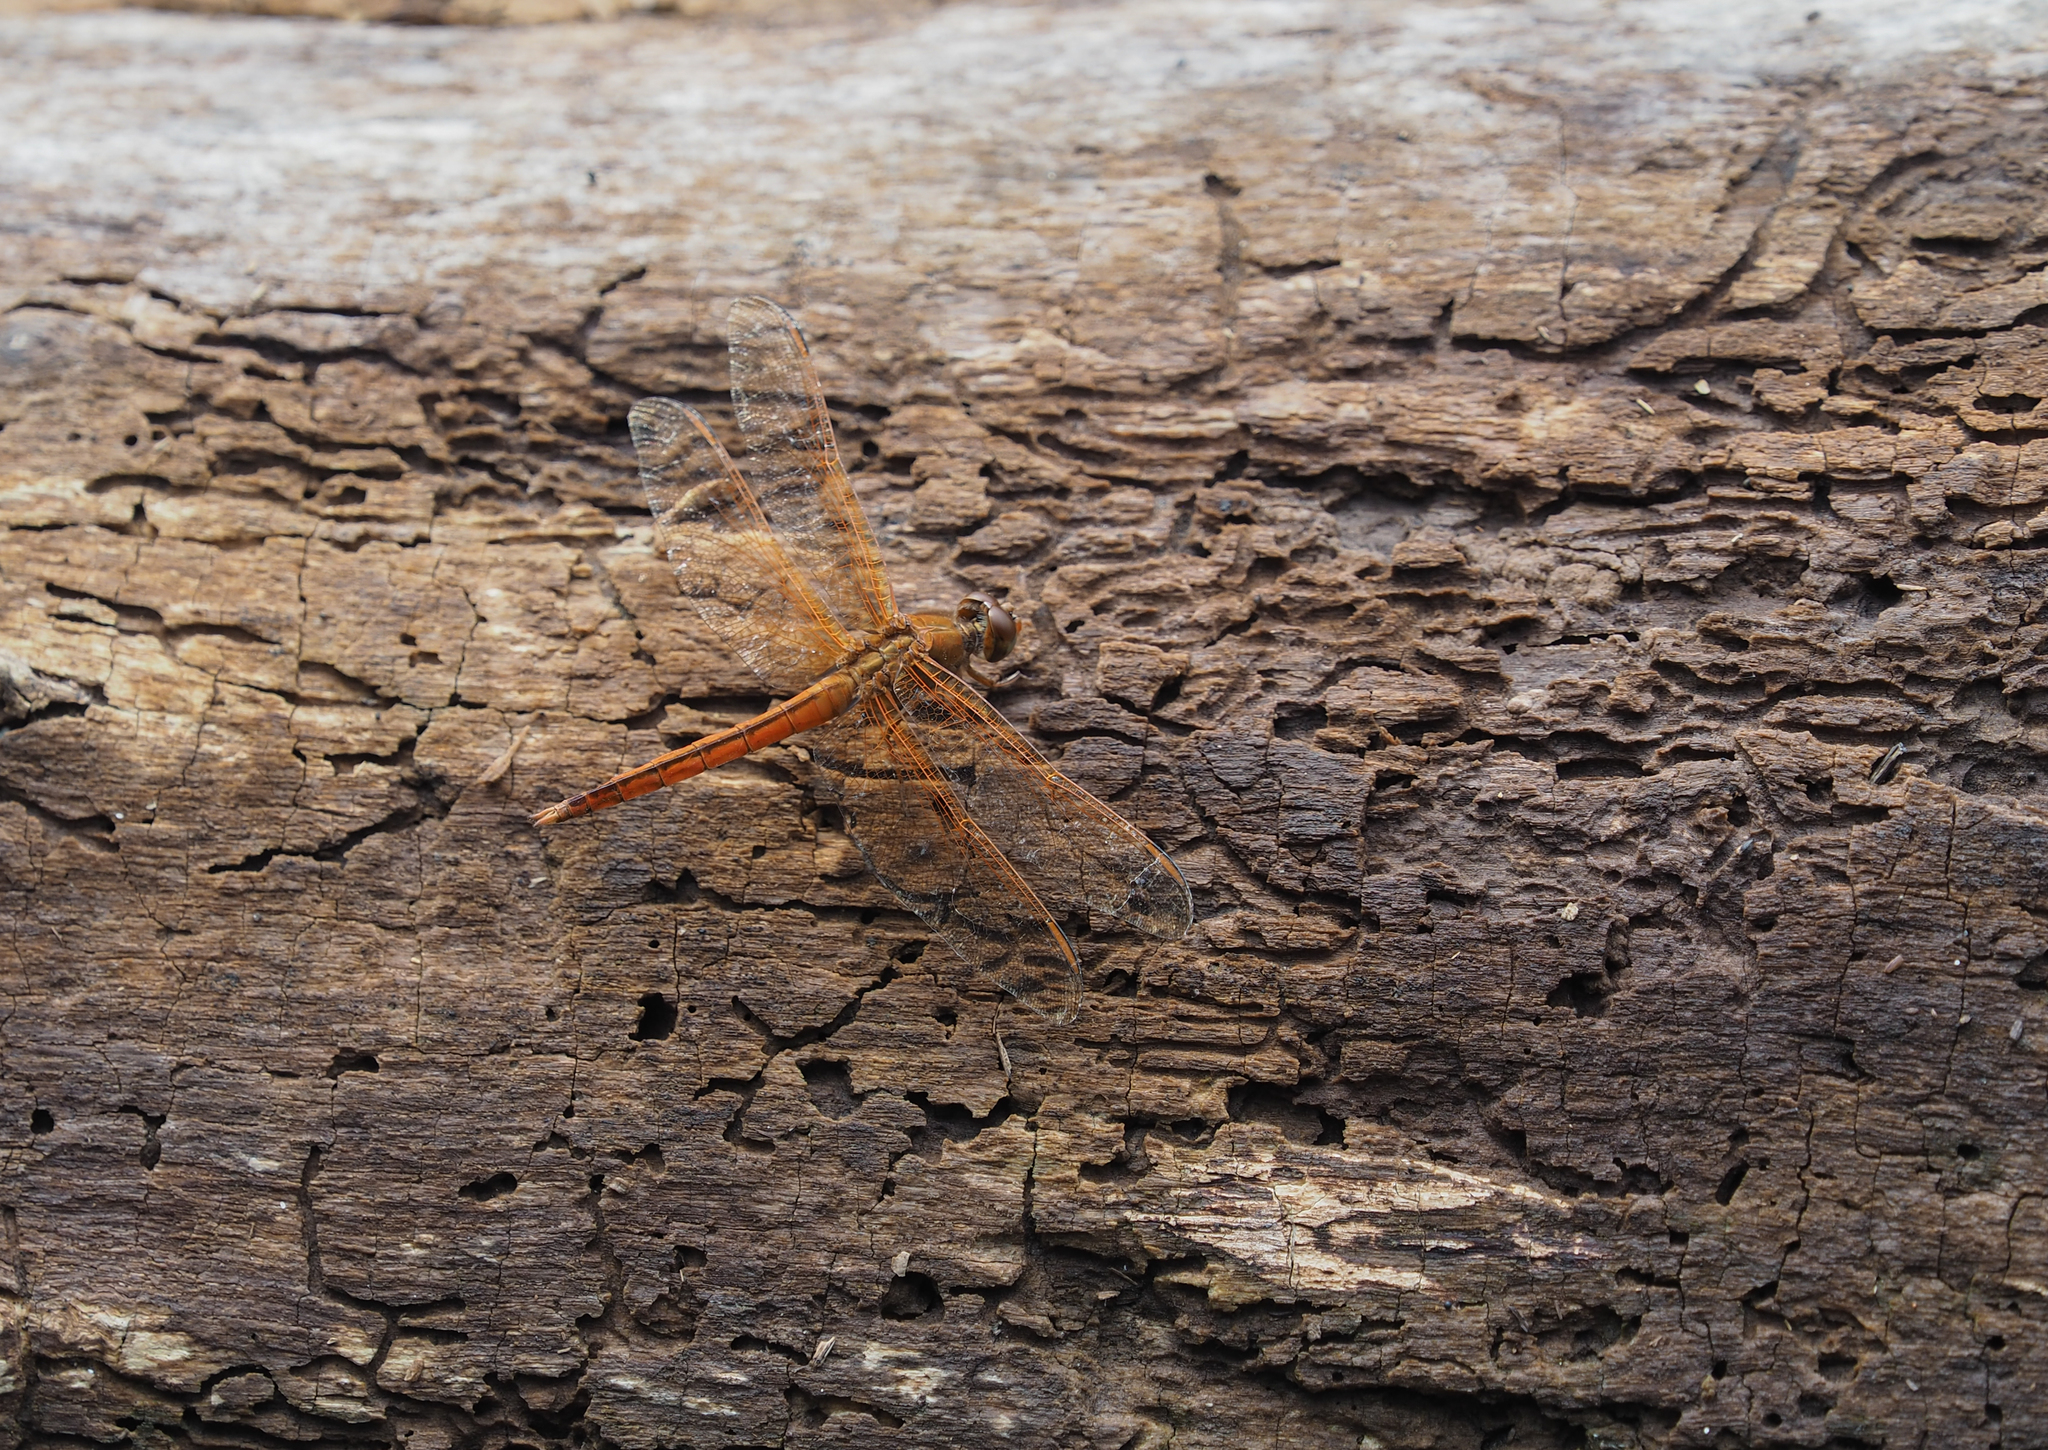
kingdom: Animalia
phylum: Arthropoda
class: Insecta
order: Odonata
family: Libellulidae
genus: Libellula
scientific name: Libellula needhami
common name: Needham's skimmer
